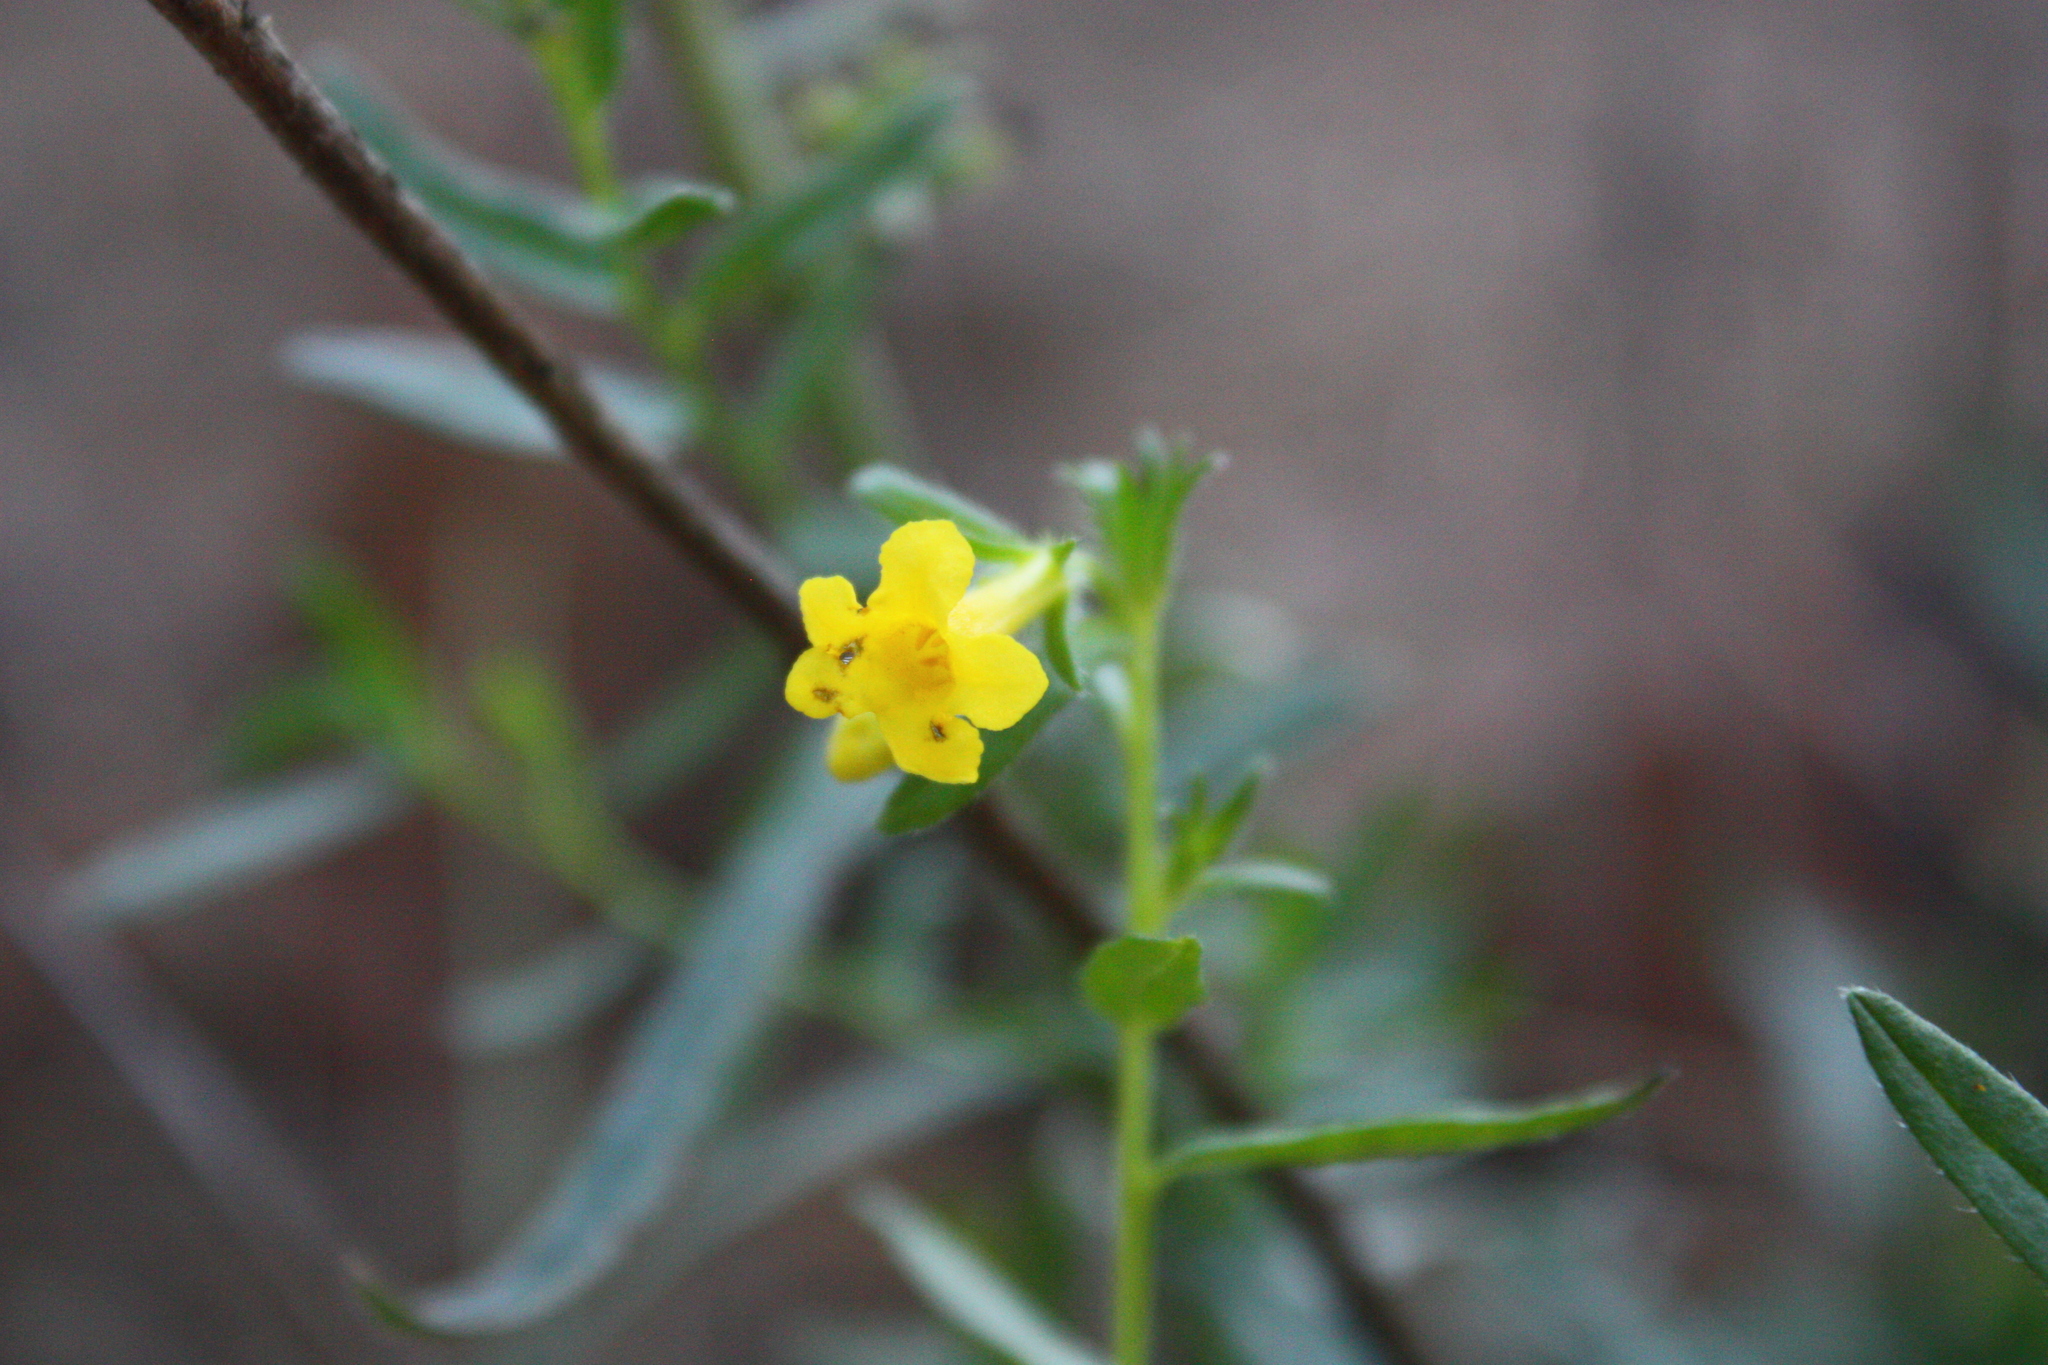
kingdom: Plantae
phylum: Tracheophyta
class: Magnoliopsida
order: Boraginales
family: Boraginaceae
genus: Lithospermum
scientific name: Lithospermum multiflorum
